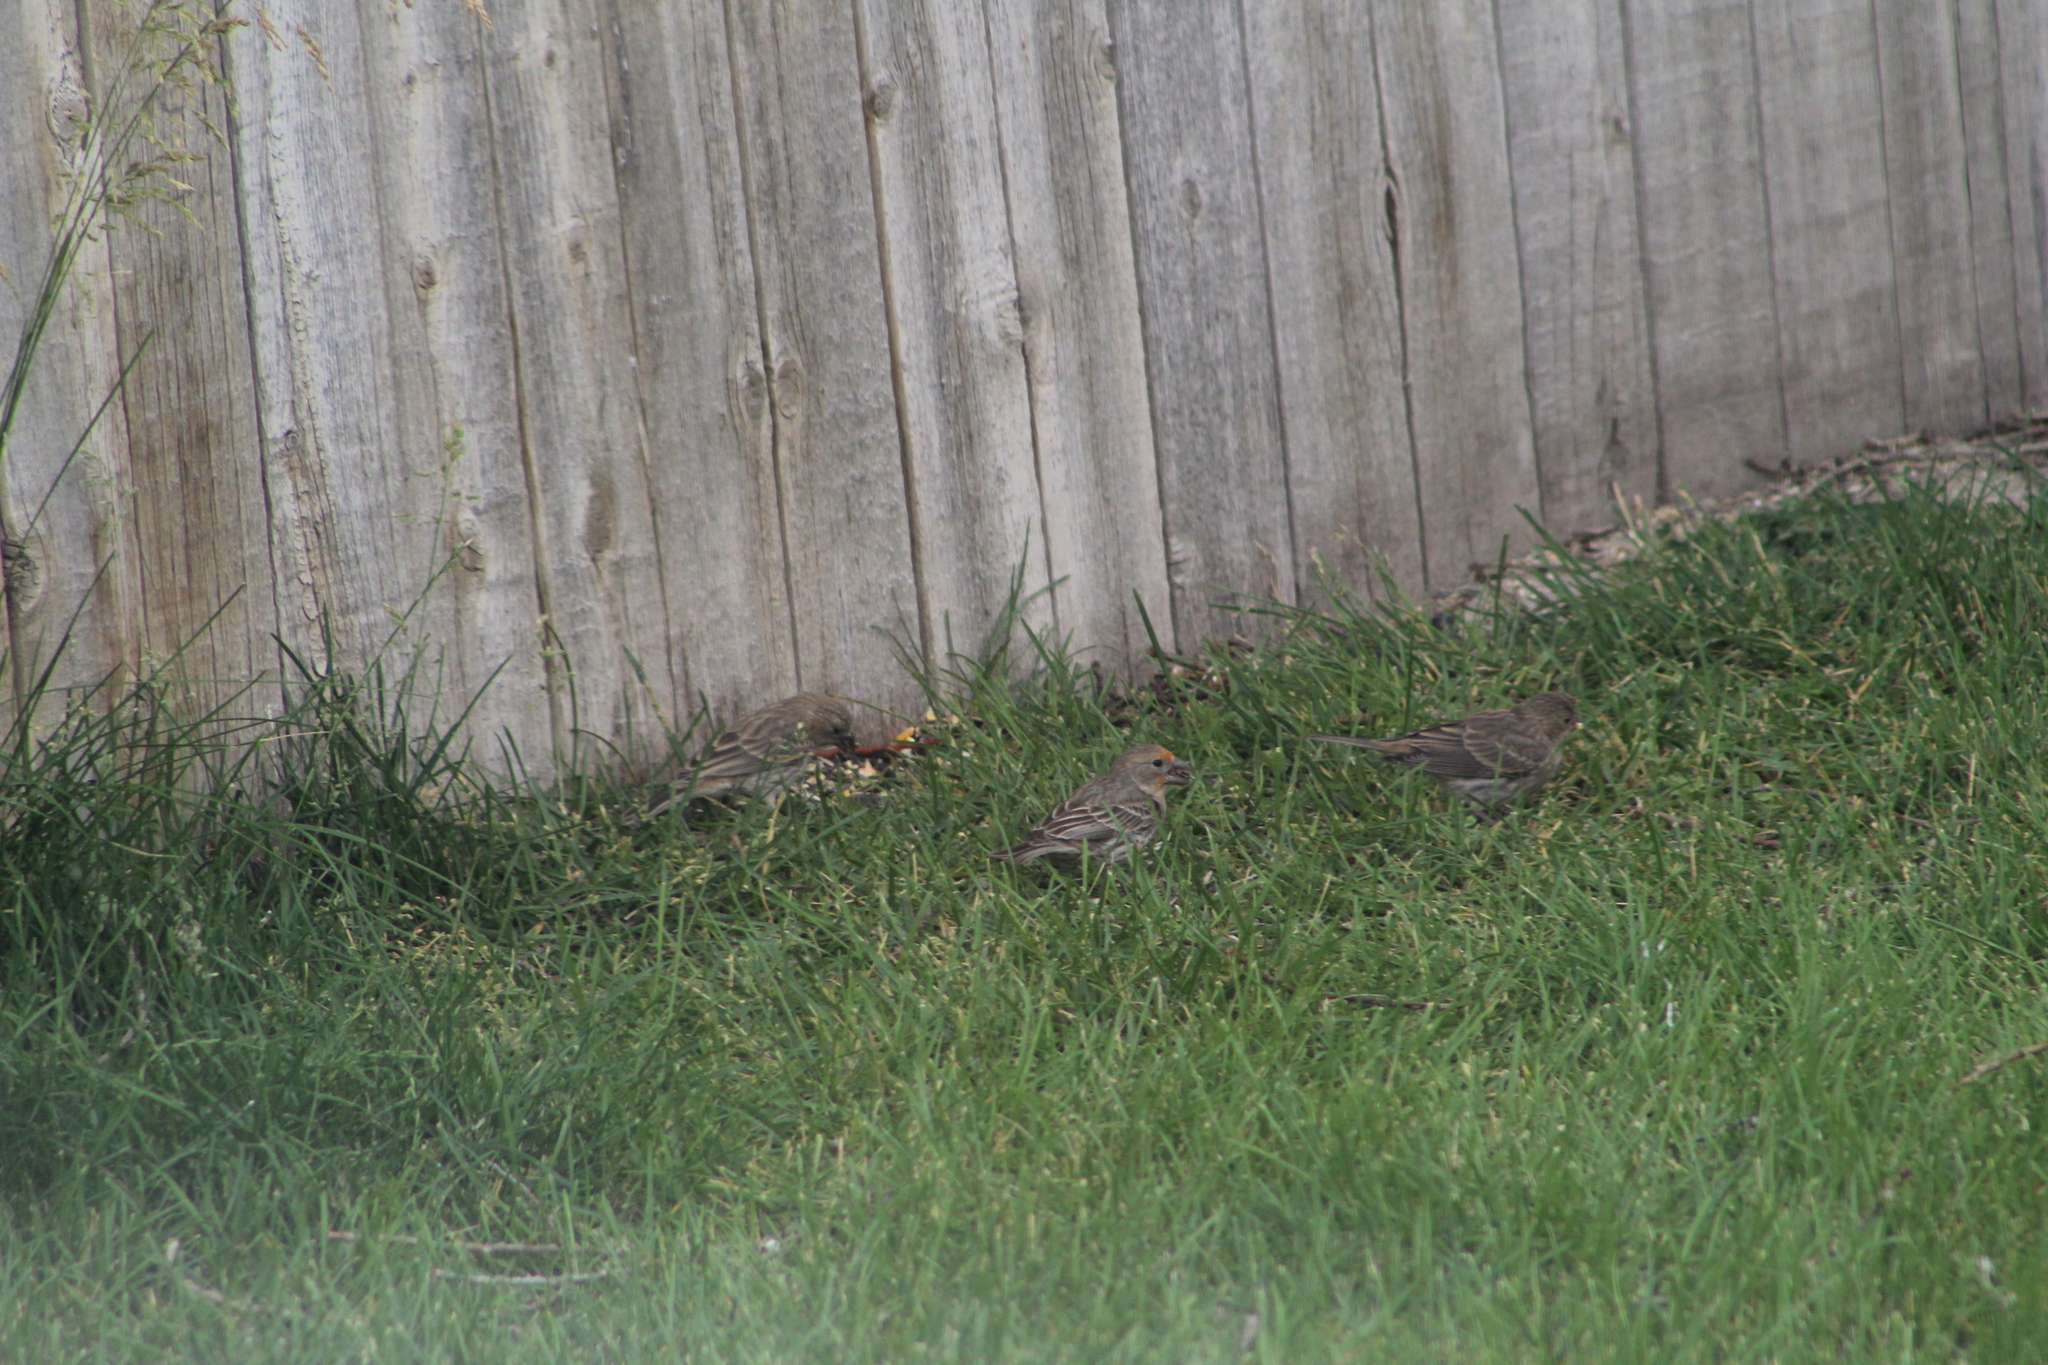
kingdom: Animalia
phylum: Chordata
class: Aves
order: Passeriformes
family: Fringillidae
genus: Haemorhous
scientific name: Haemorhous mexicanus
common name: House finch
